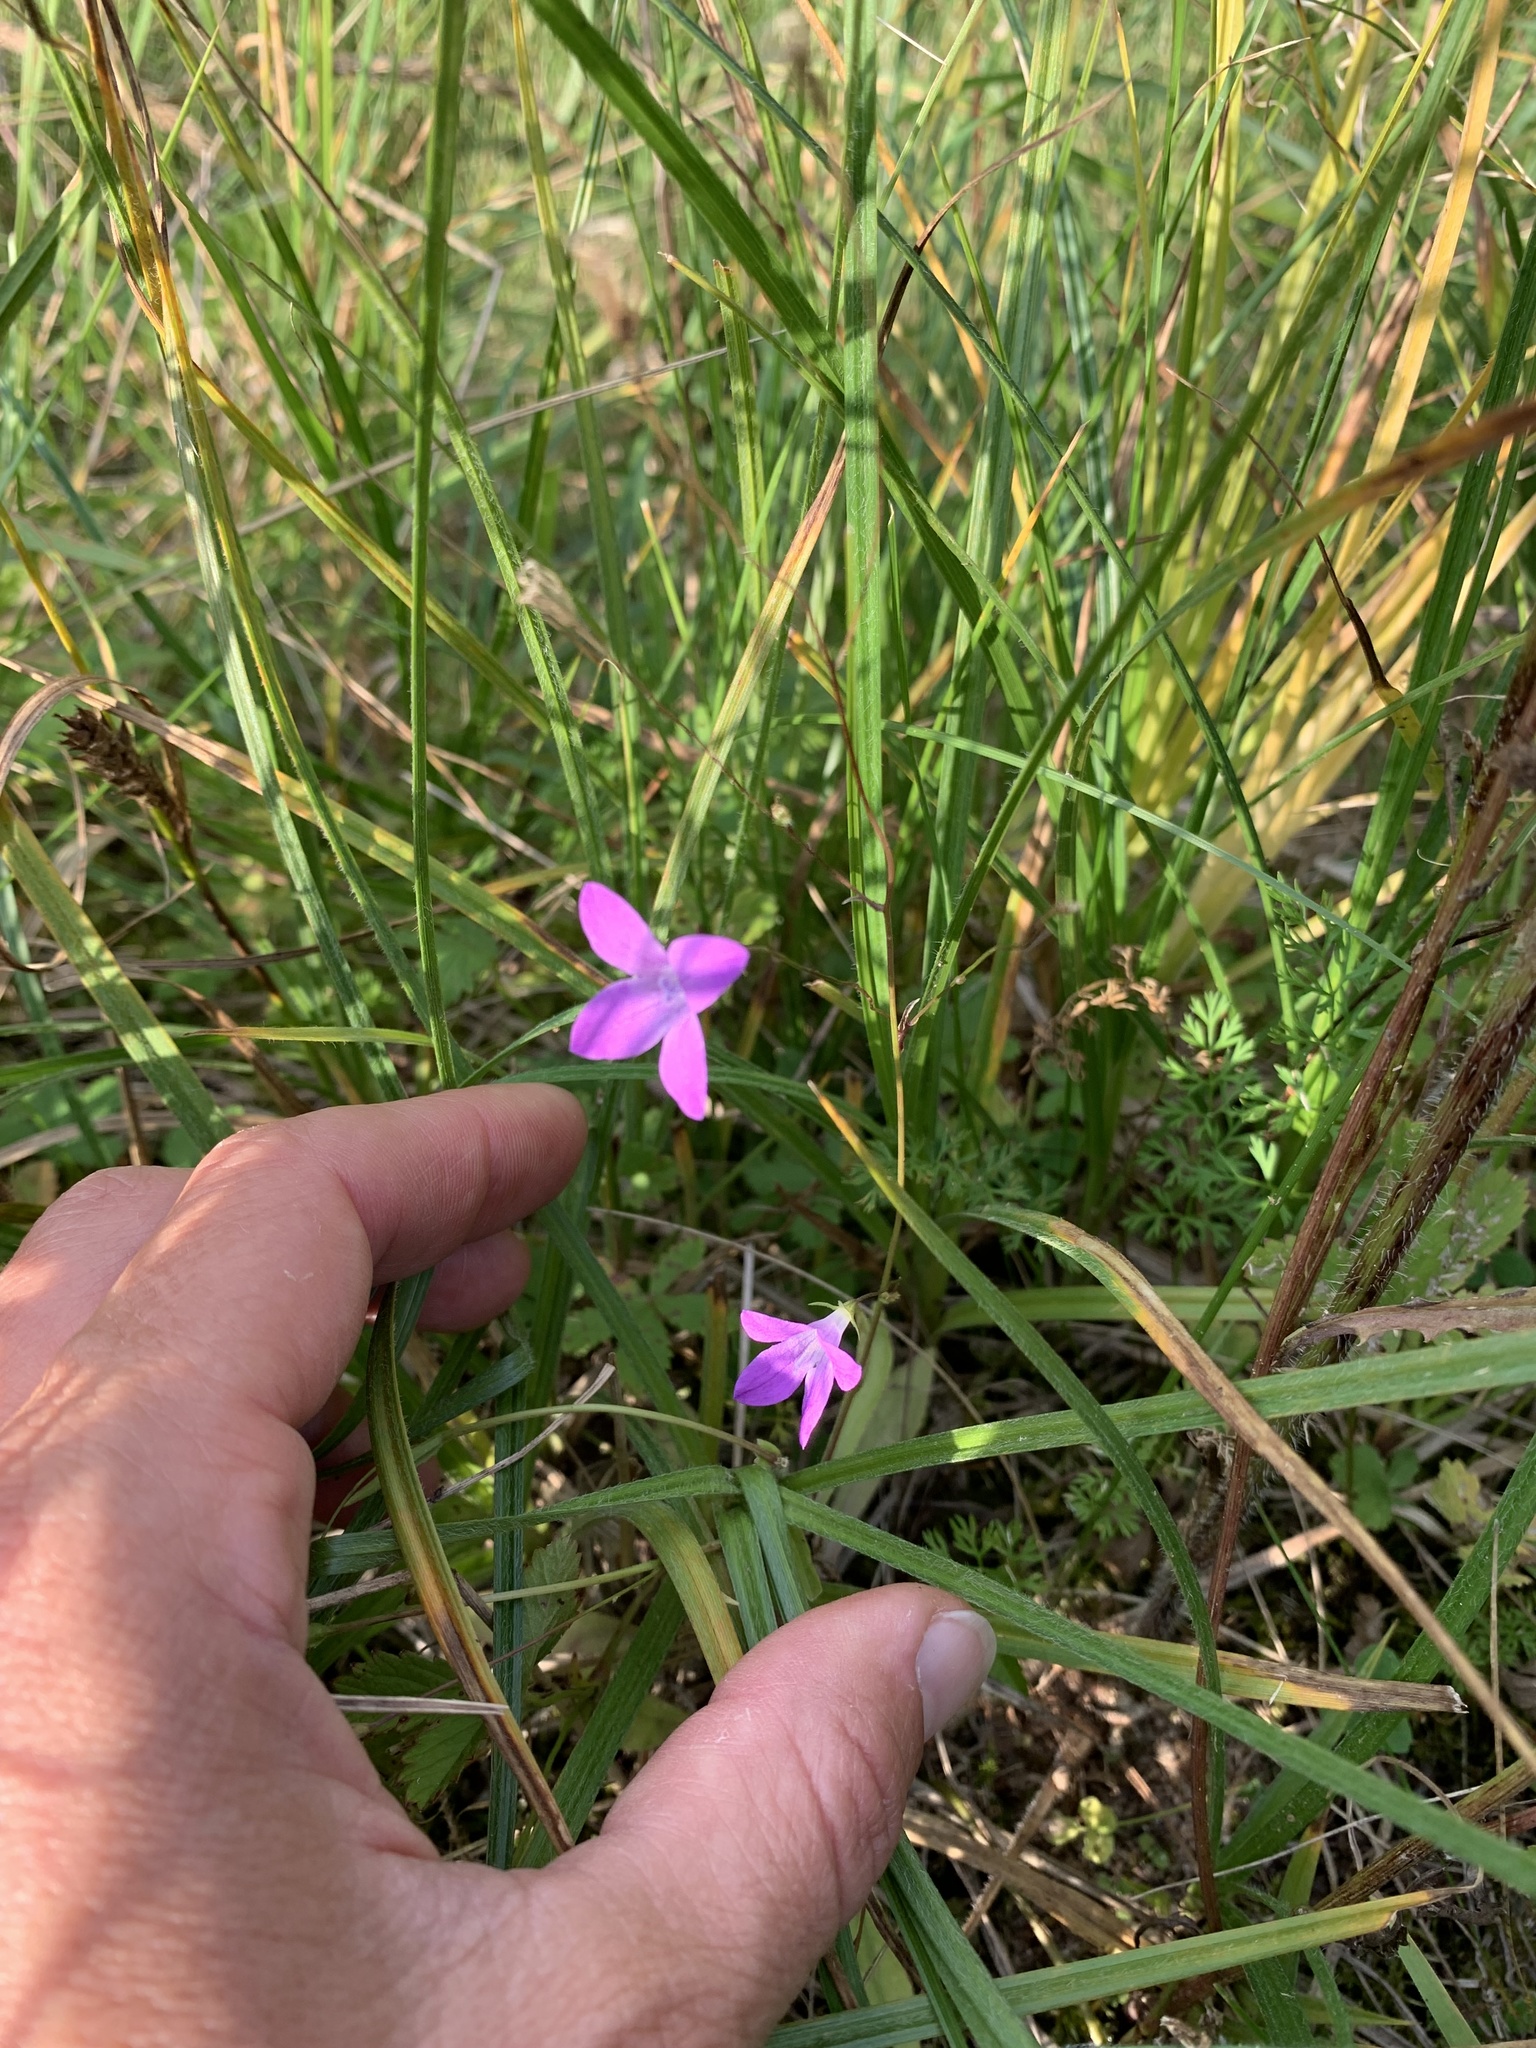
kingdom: Plantae
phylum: Tracheophyta
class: Magnoliopsida
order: Asterales
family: Campanulaceae
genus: Campanula
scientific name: Campanula patula
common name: Spreading bellflower
